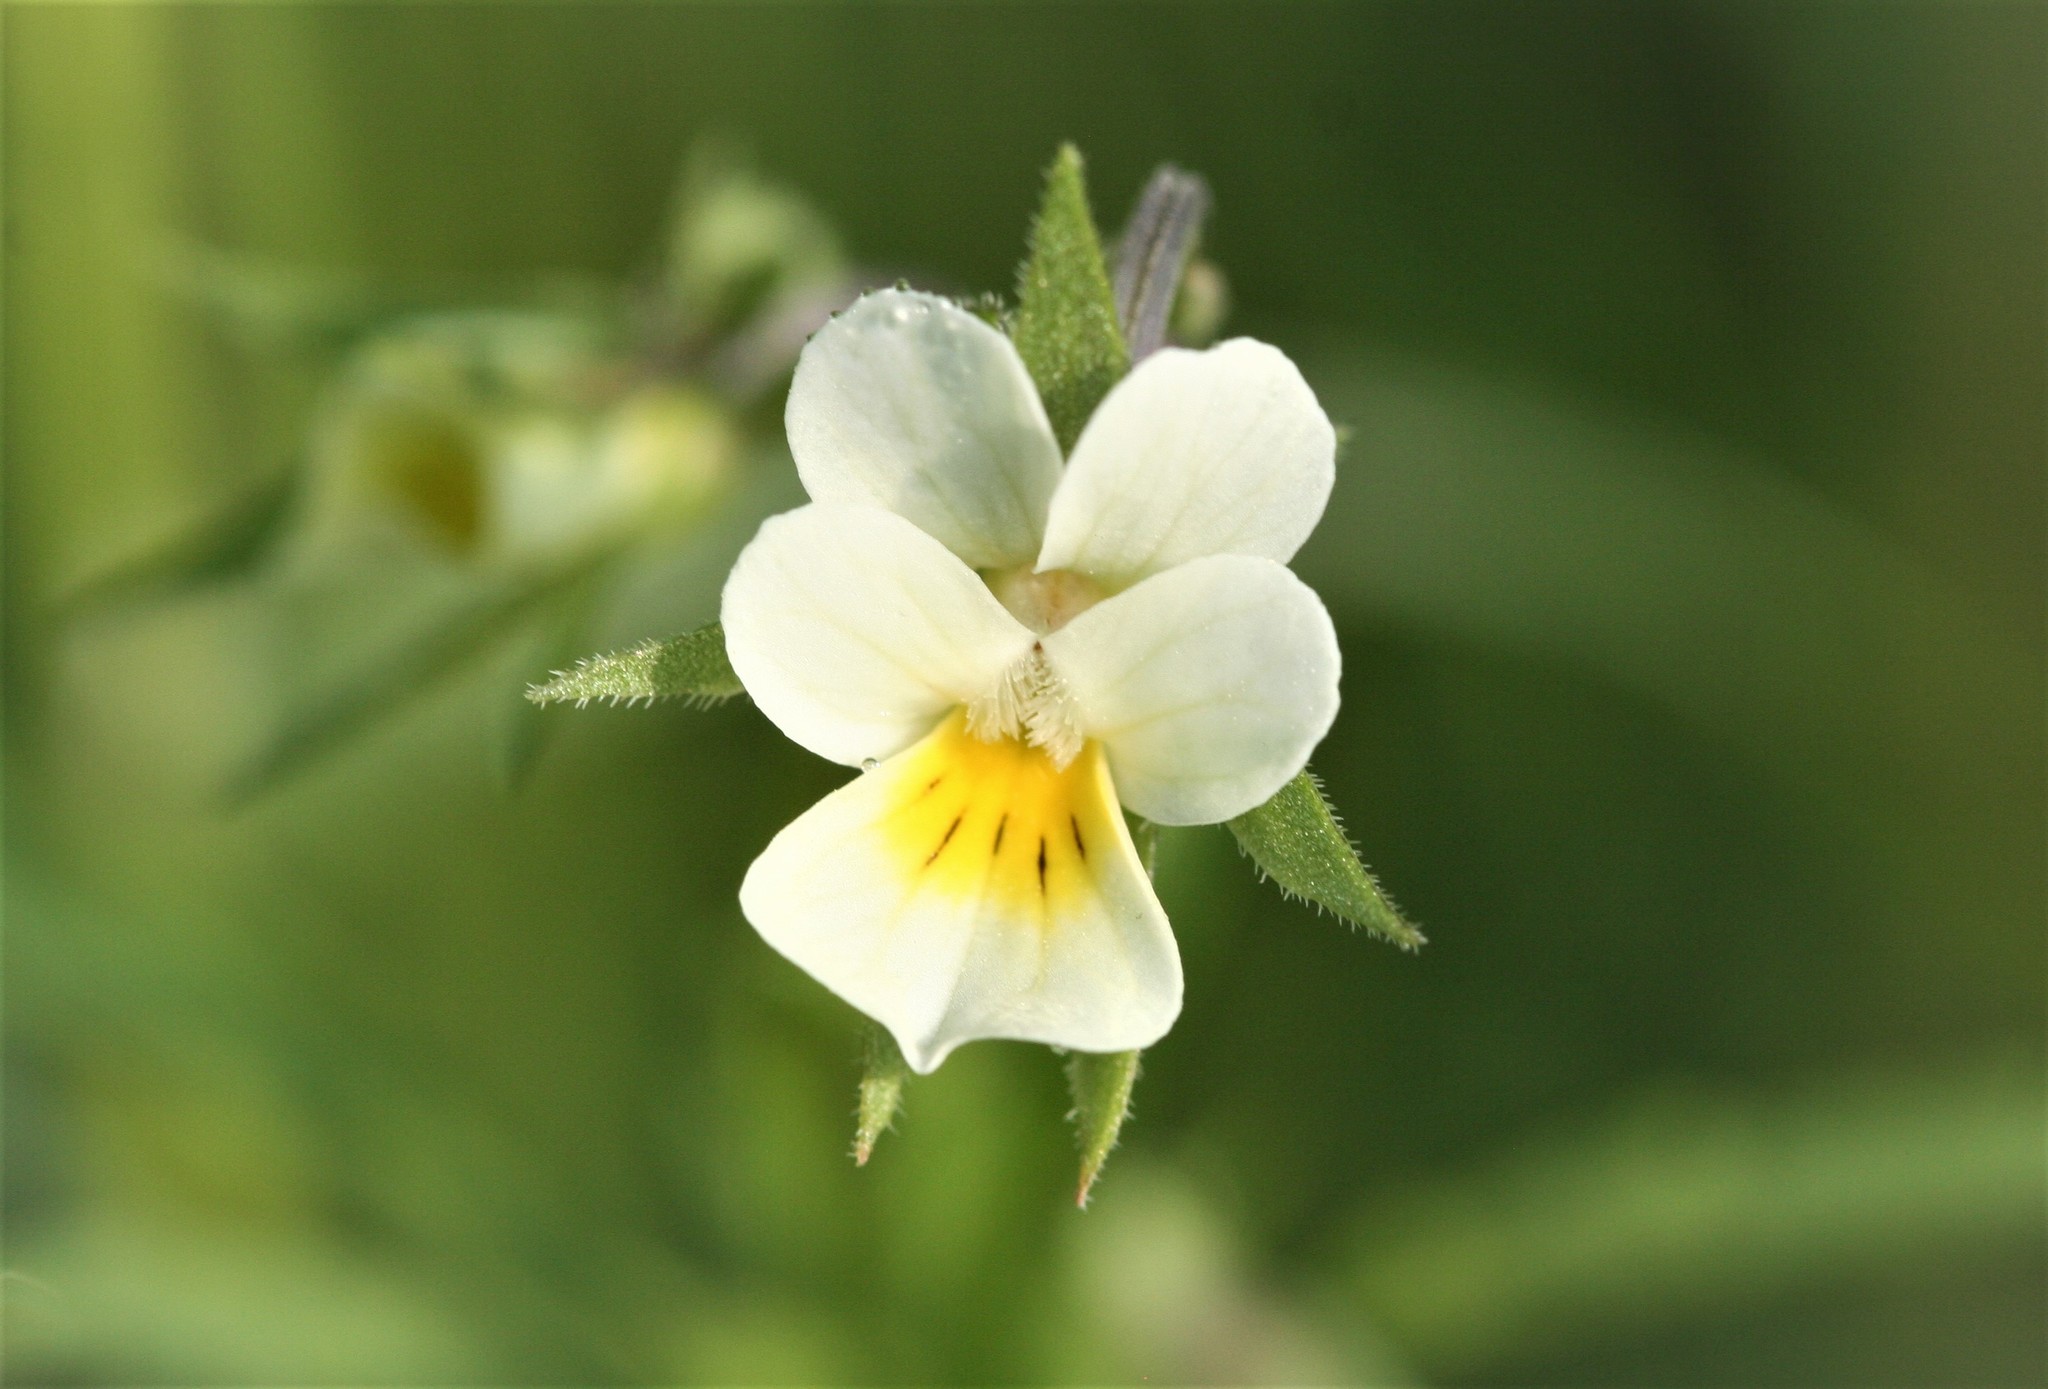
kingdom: Plantae
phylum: Tracheophyta
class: Magnoliopsida
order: Malpighiales
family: Violaceae
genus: Viola
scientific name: Viola arvensis
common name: Field pansy
